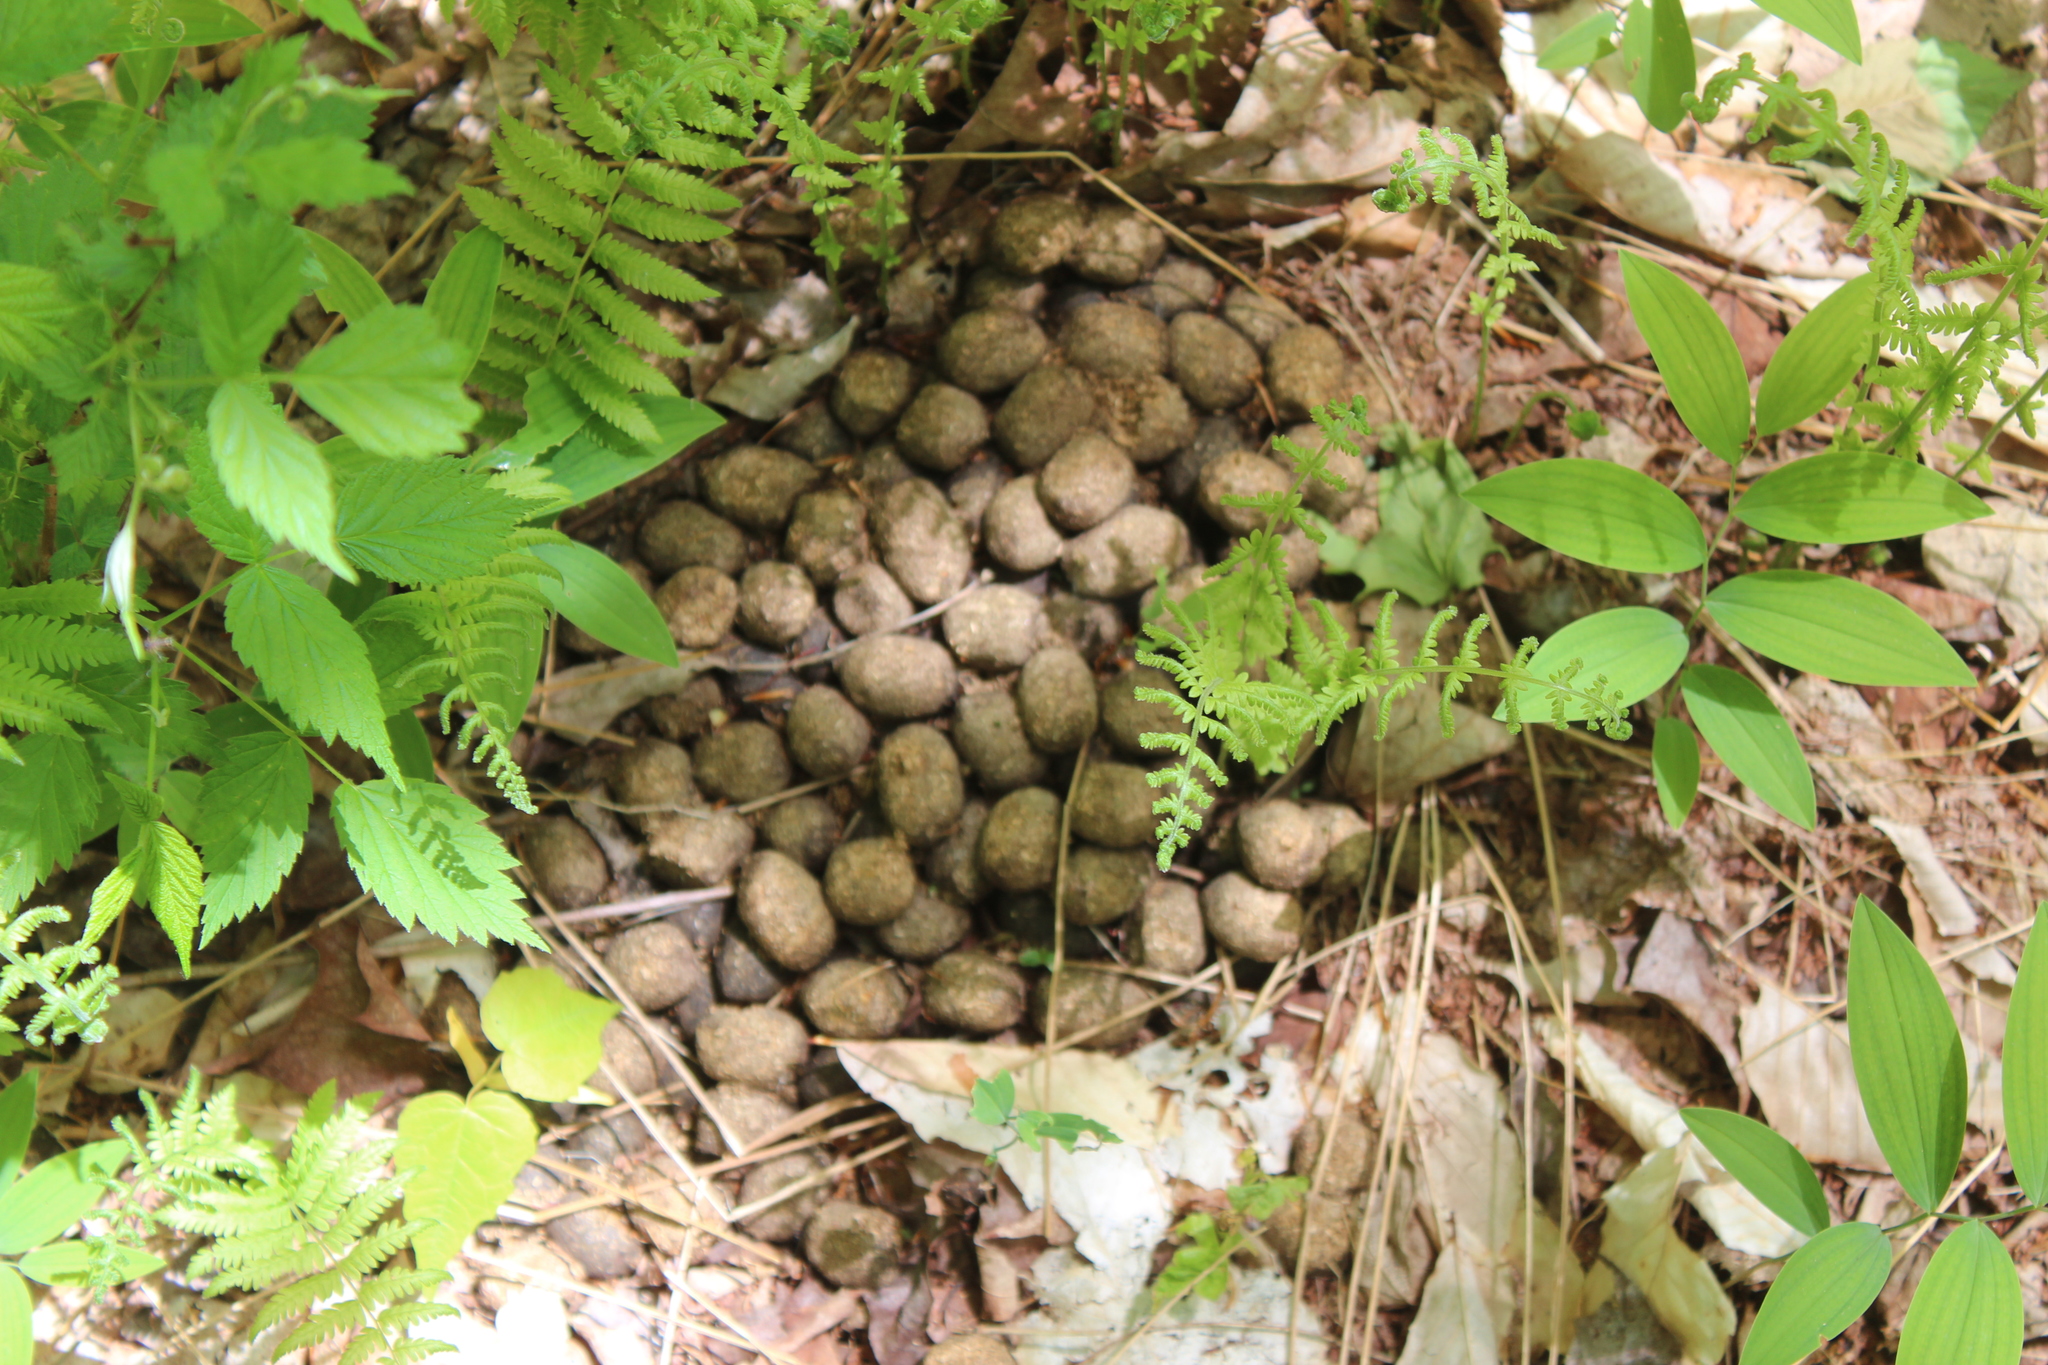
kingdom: Animalia
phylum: Chordata
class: Mammalia
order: Artiodactyla
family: Cervidae
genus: Alces
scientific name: Alces alces
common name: Moose
